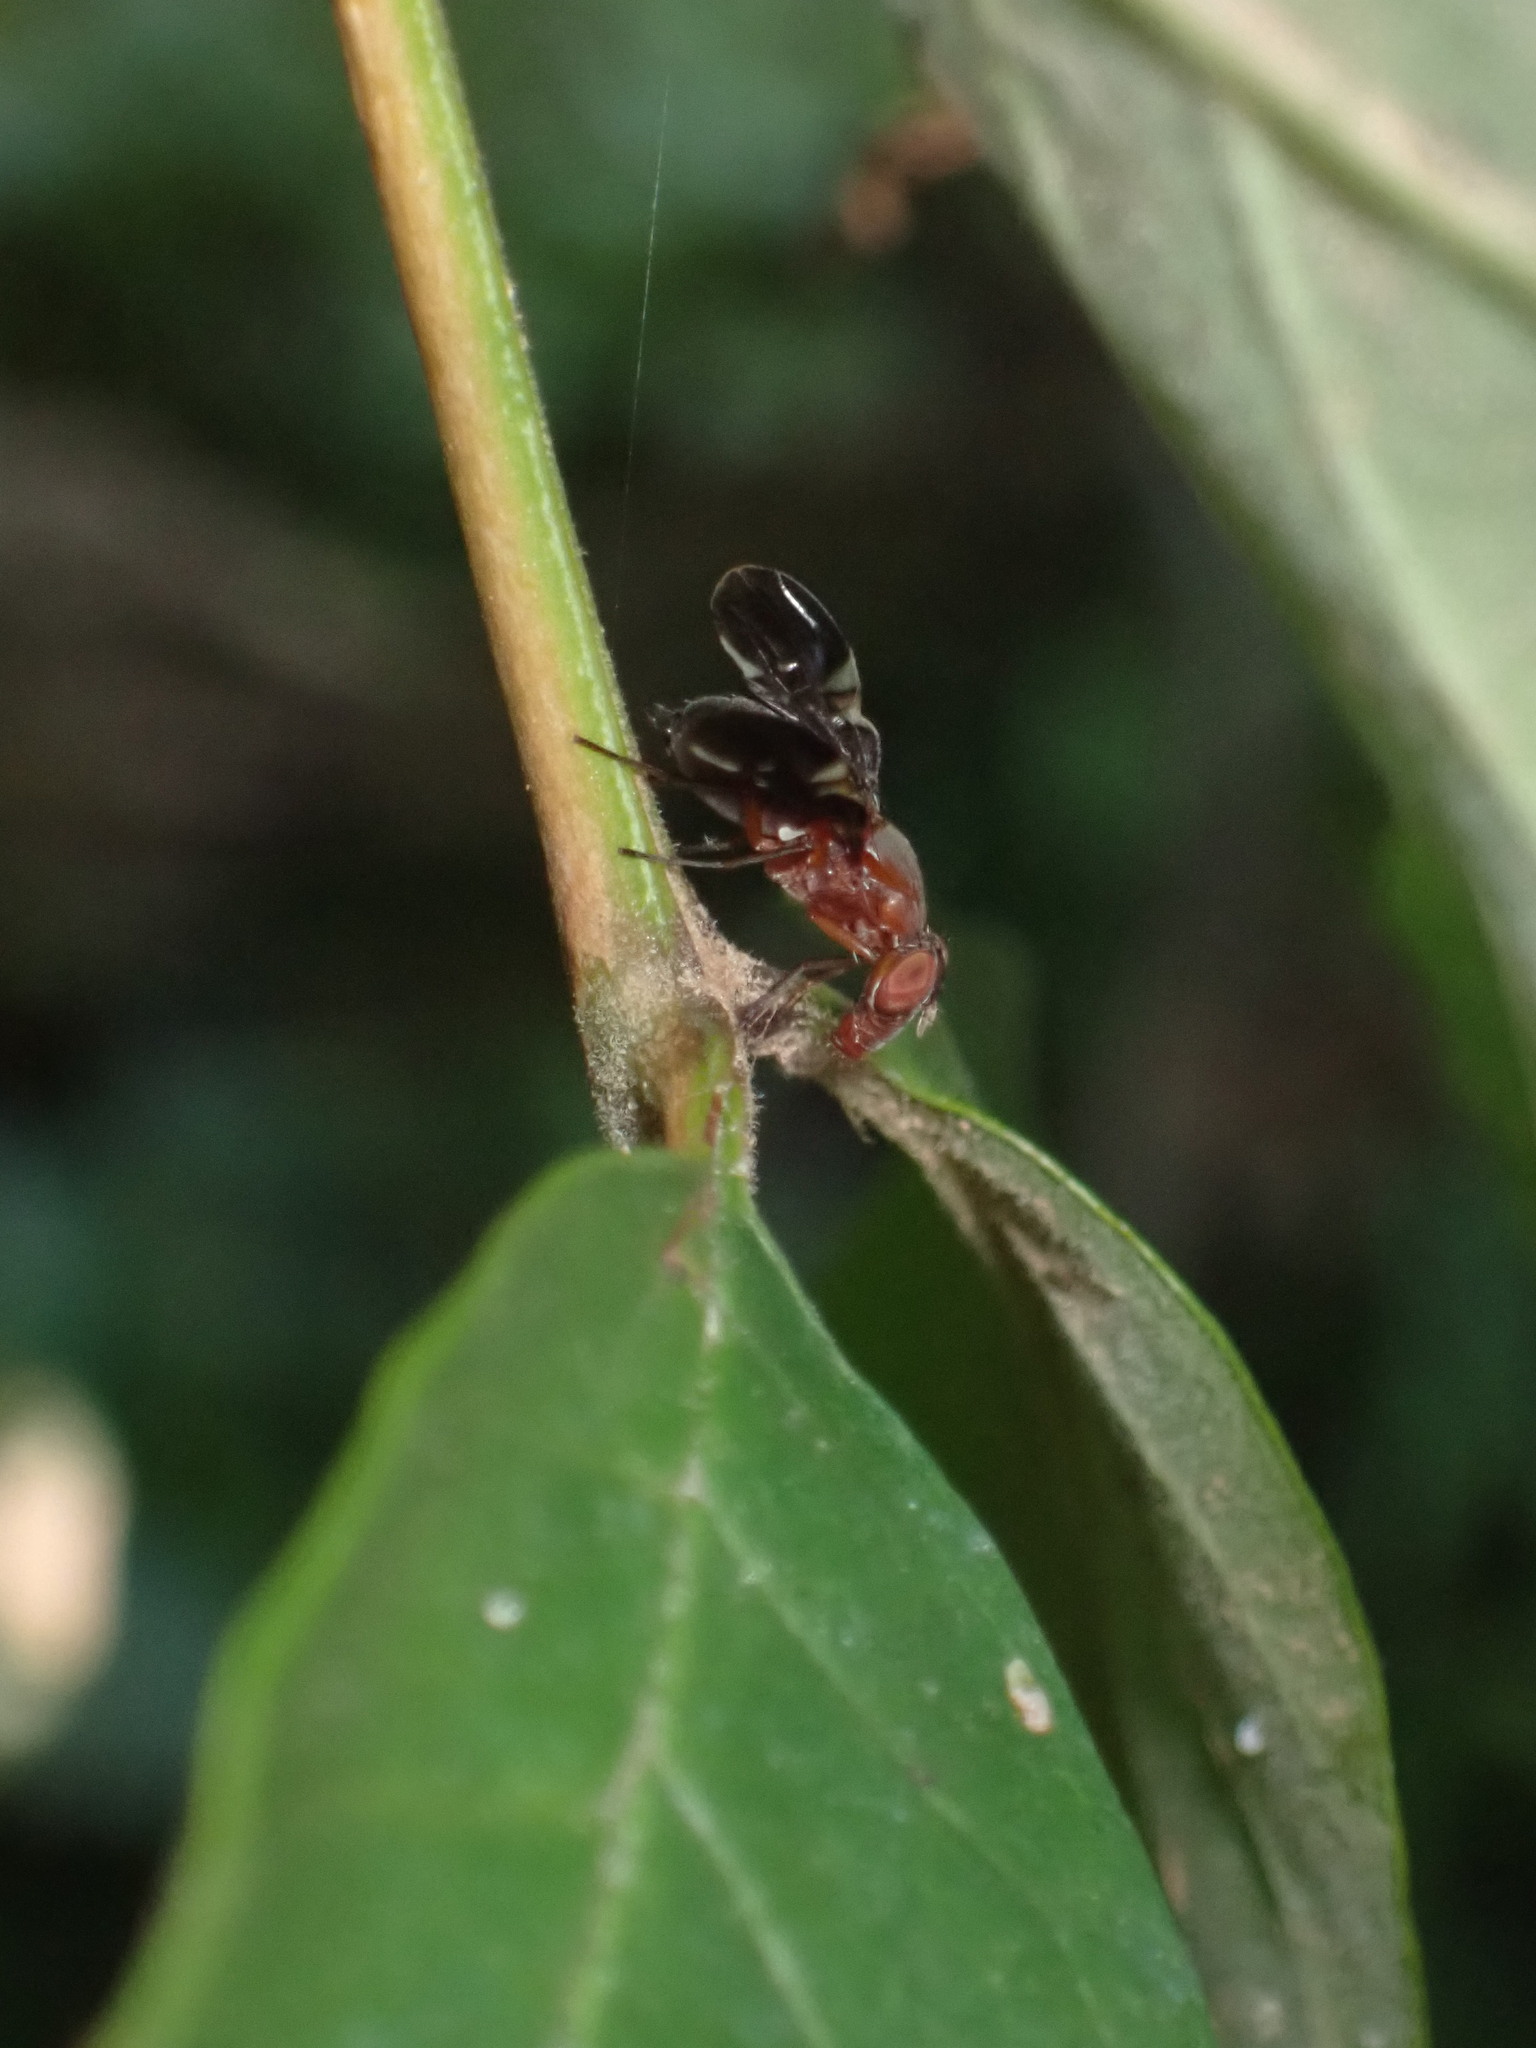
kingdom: Animalia
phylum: Arthropoda
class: Insecta
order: Diptera
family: Ulidiidae
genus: Delphinia
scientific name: Delphinia picta
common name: Common picture-winged fly
